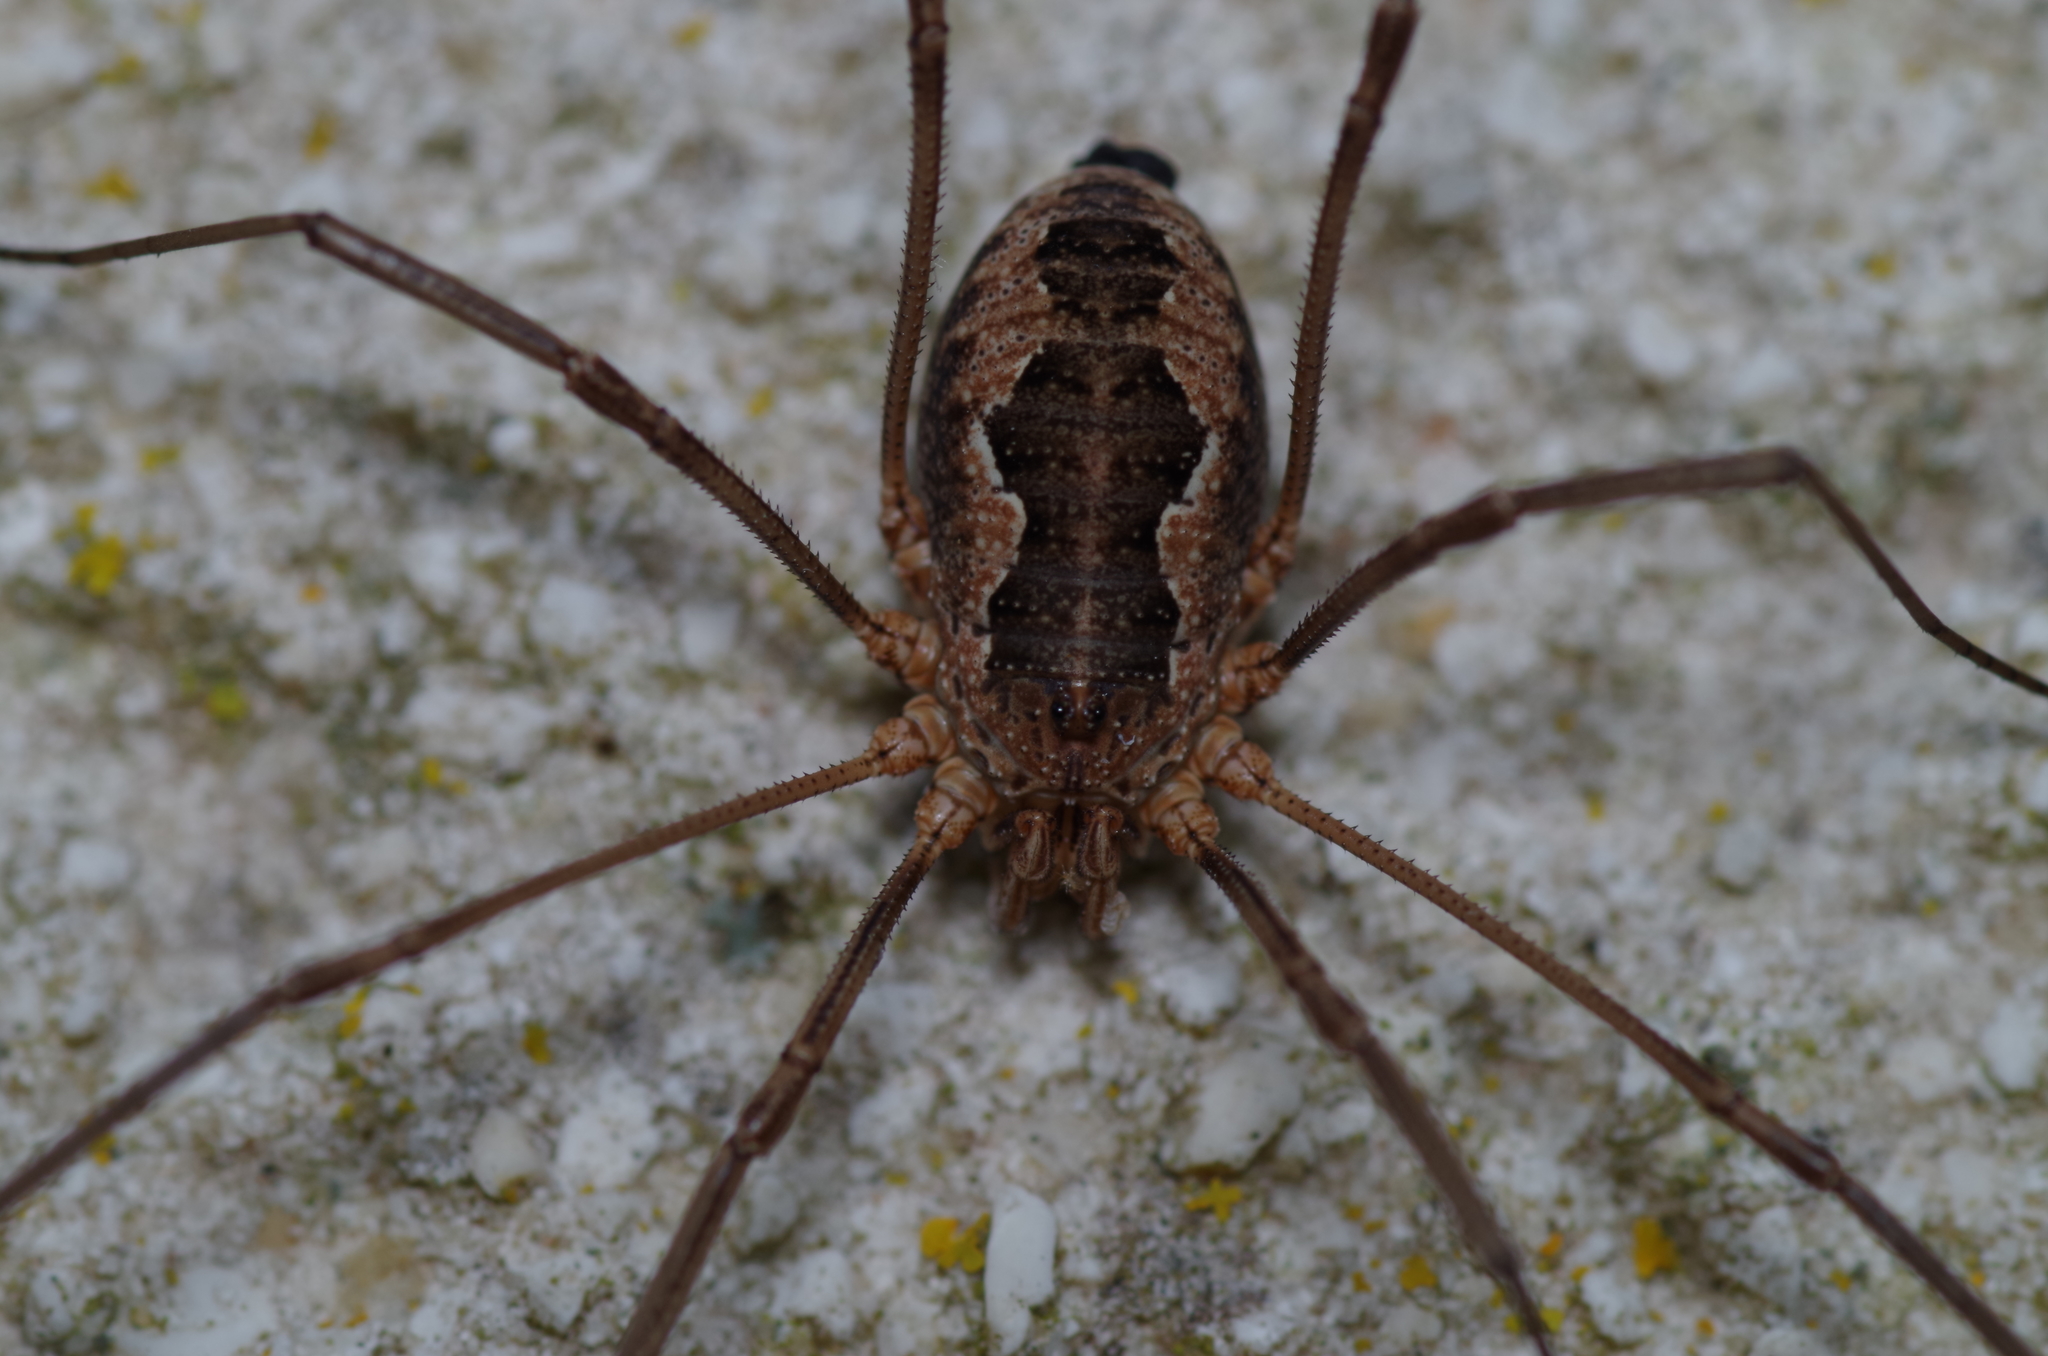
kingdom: Animalia
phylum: Arthropoda
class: Arachnida
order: Opiliones
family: Phalangiidae
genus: Phalangium
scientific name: Phalangium opilio
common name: Daddy longleg
